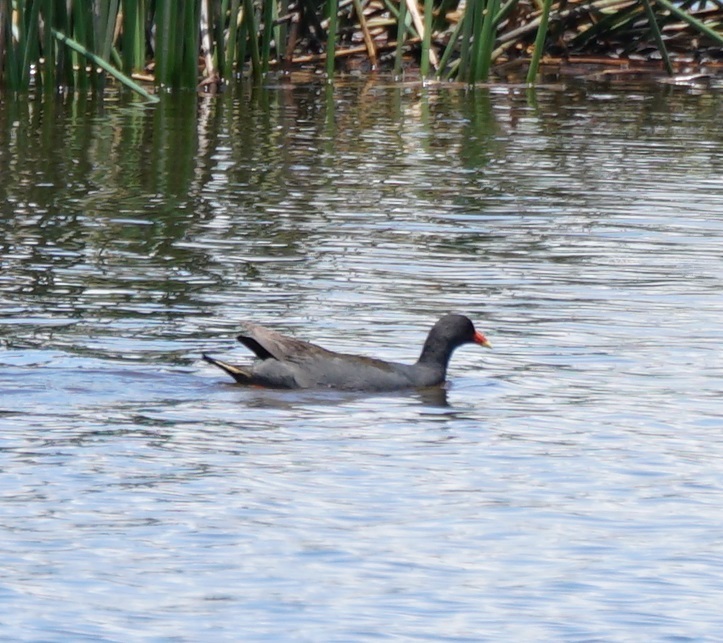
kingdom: Animalia
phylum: Chordata
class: Aves
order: Gruiformes
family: Rallidae
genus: Gallinula
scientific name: Gallinula tenebrosa
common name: Dusky moorhen
